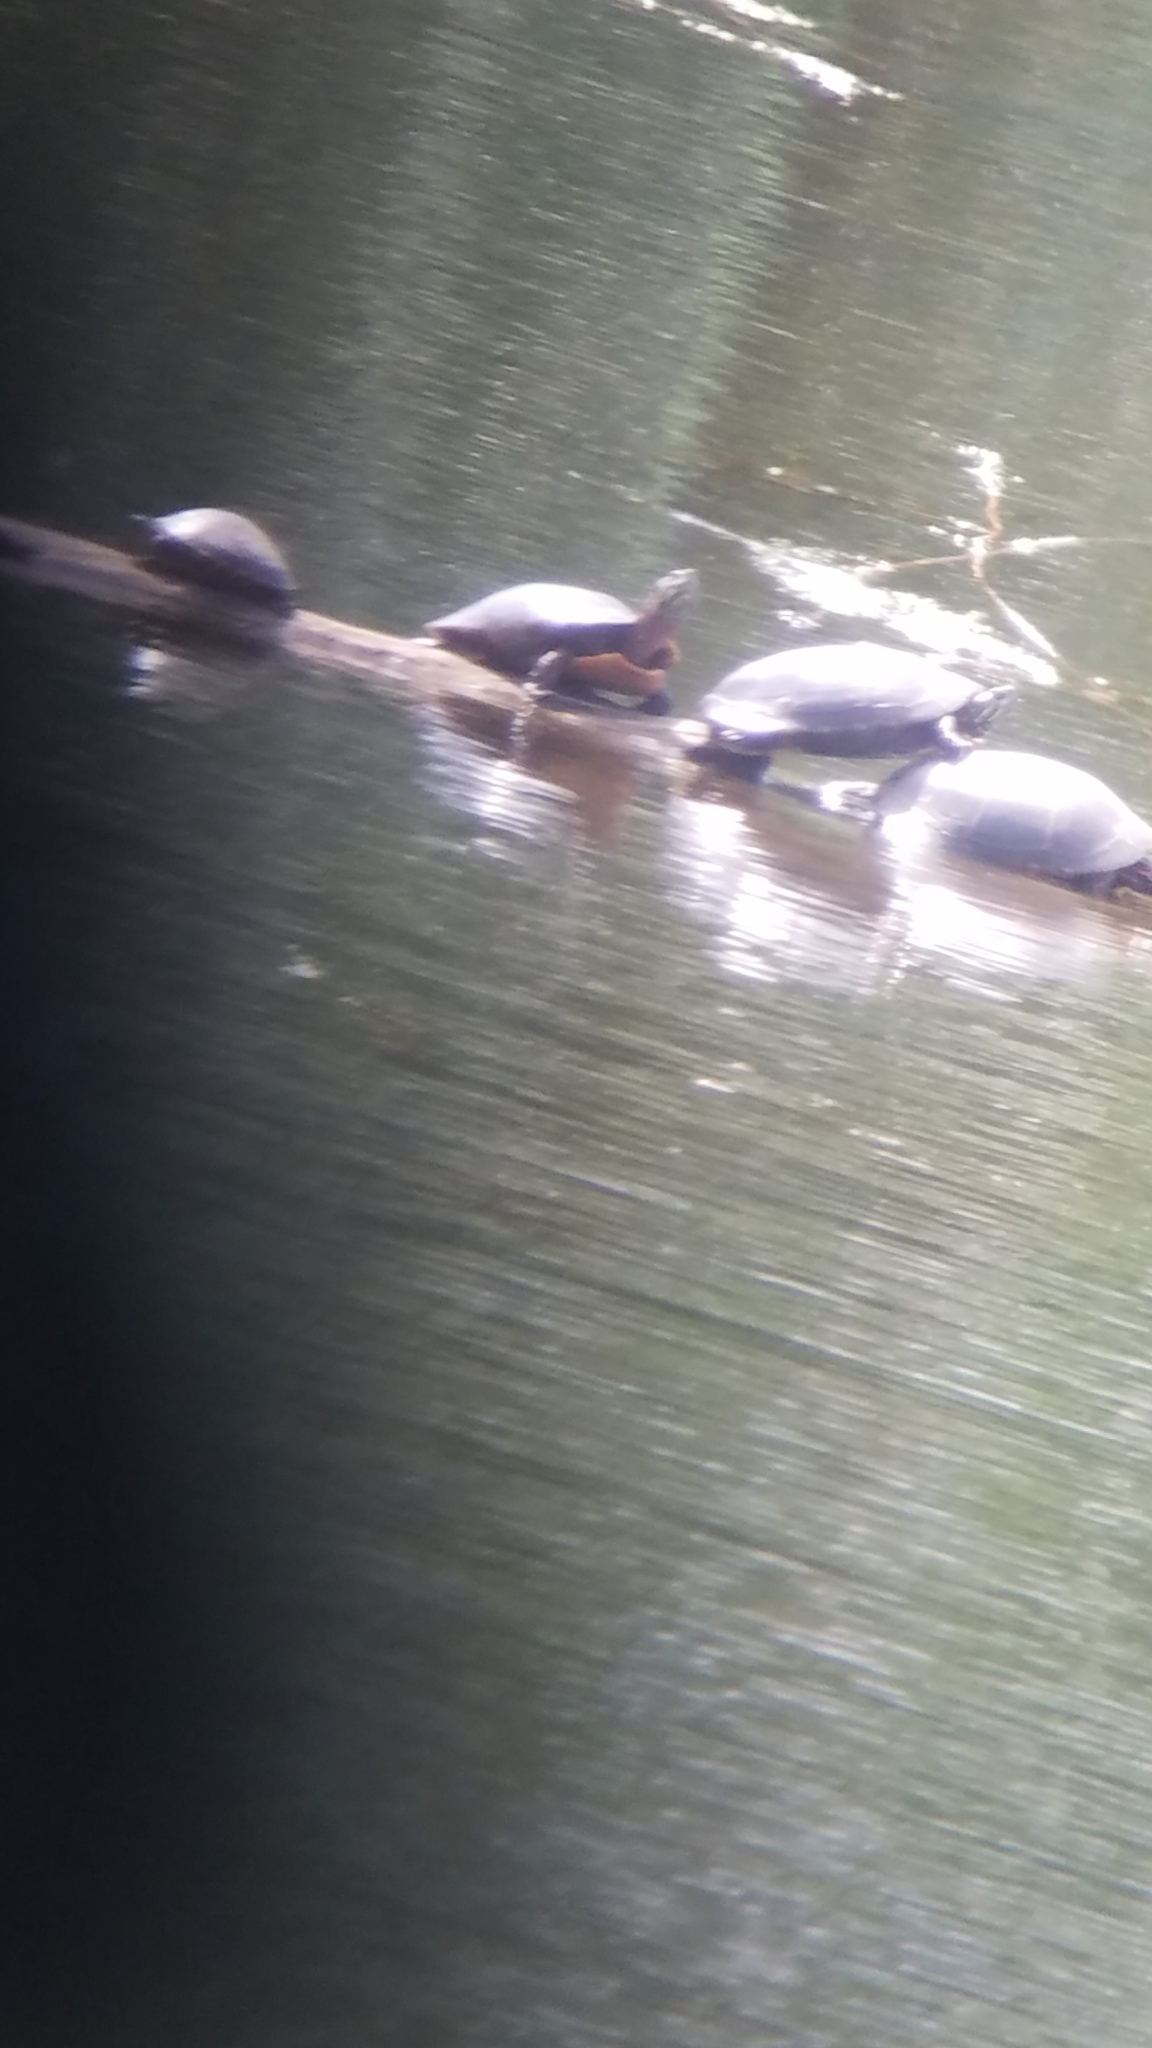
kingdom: Animalia
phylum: Chordata
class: Testudines
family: Emydidae
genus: Chrysemys
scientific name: Chrysemys picta
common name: Painted turtle
